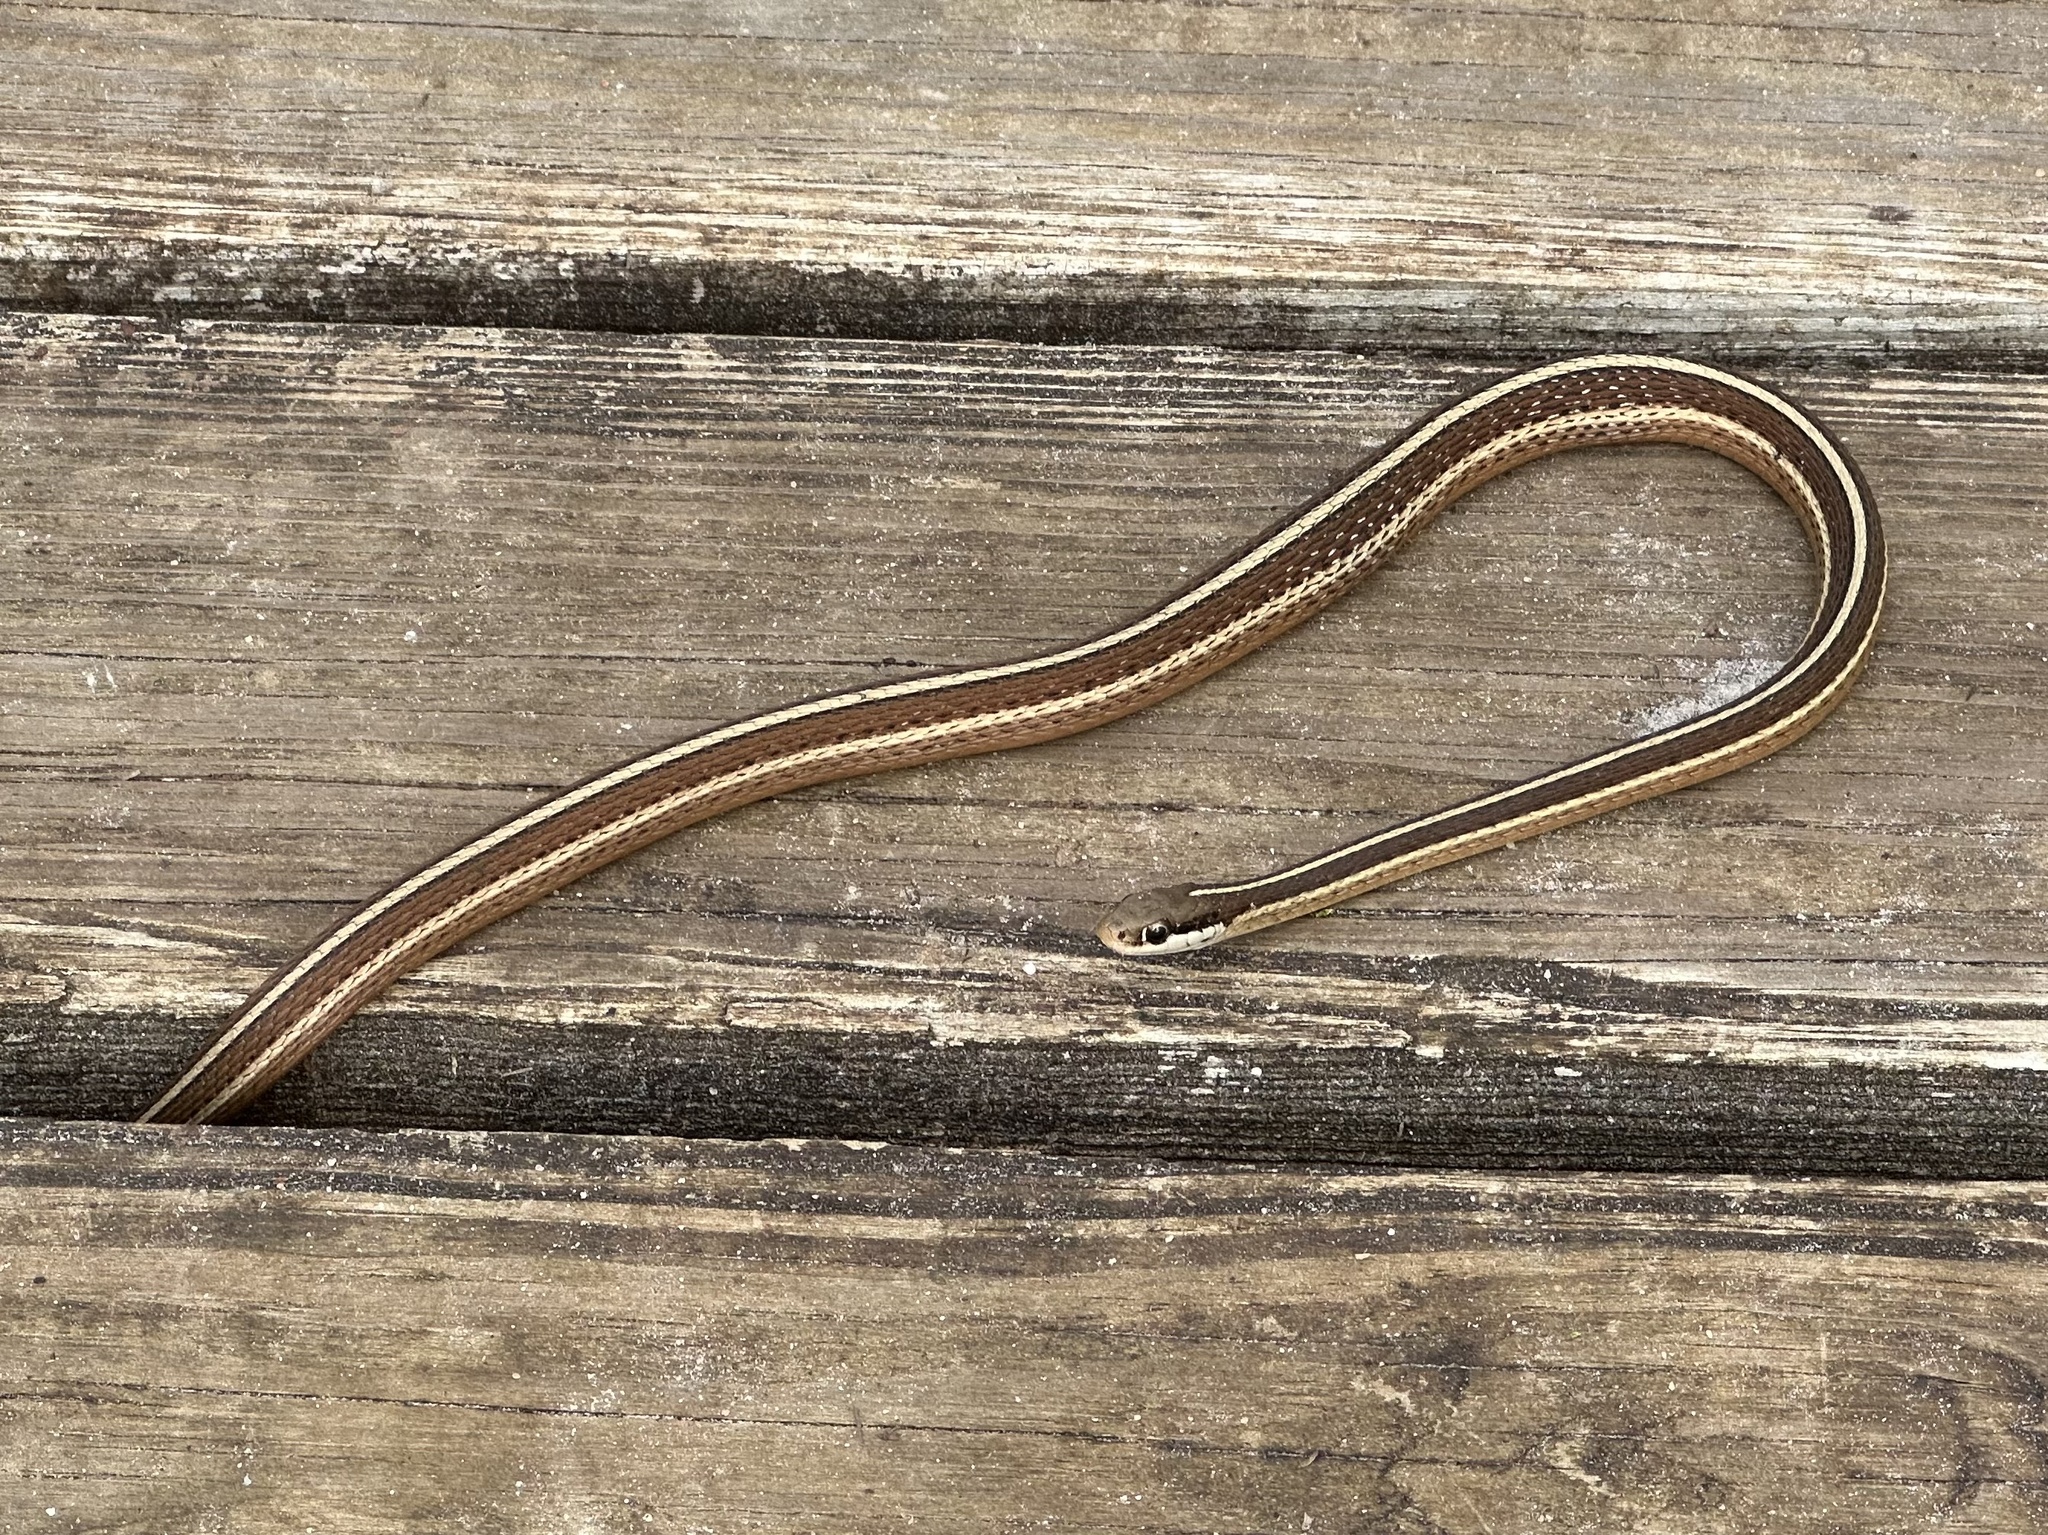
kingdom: Animalia
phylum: Chordata
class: Squamata
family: Colubridae
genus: Thamnophis
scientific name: Thamnophis saurita
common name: Eastern ribbonsnake
